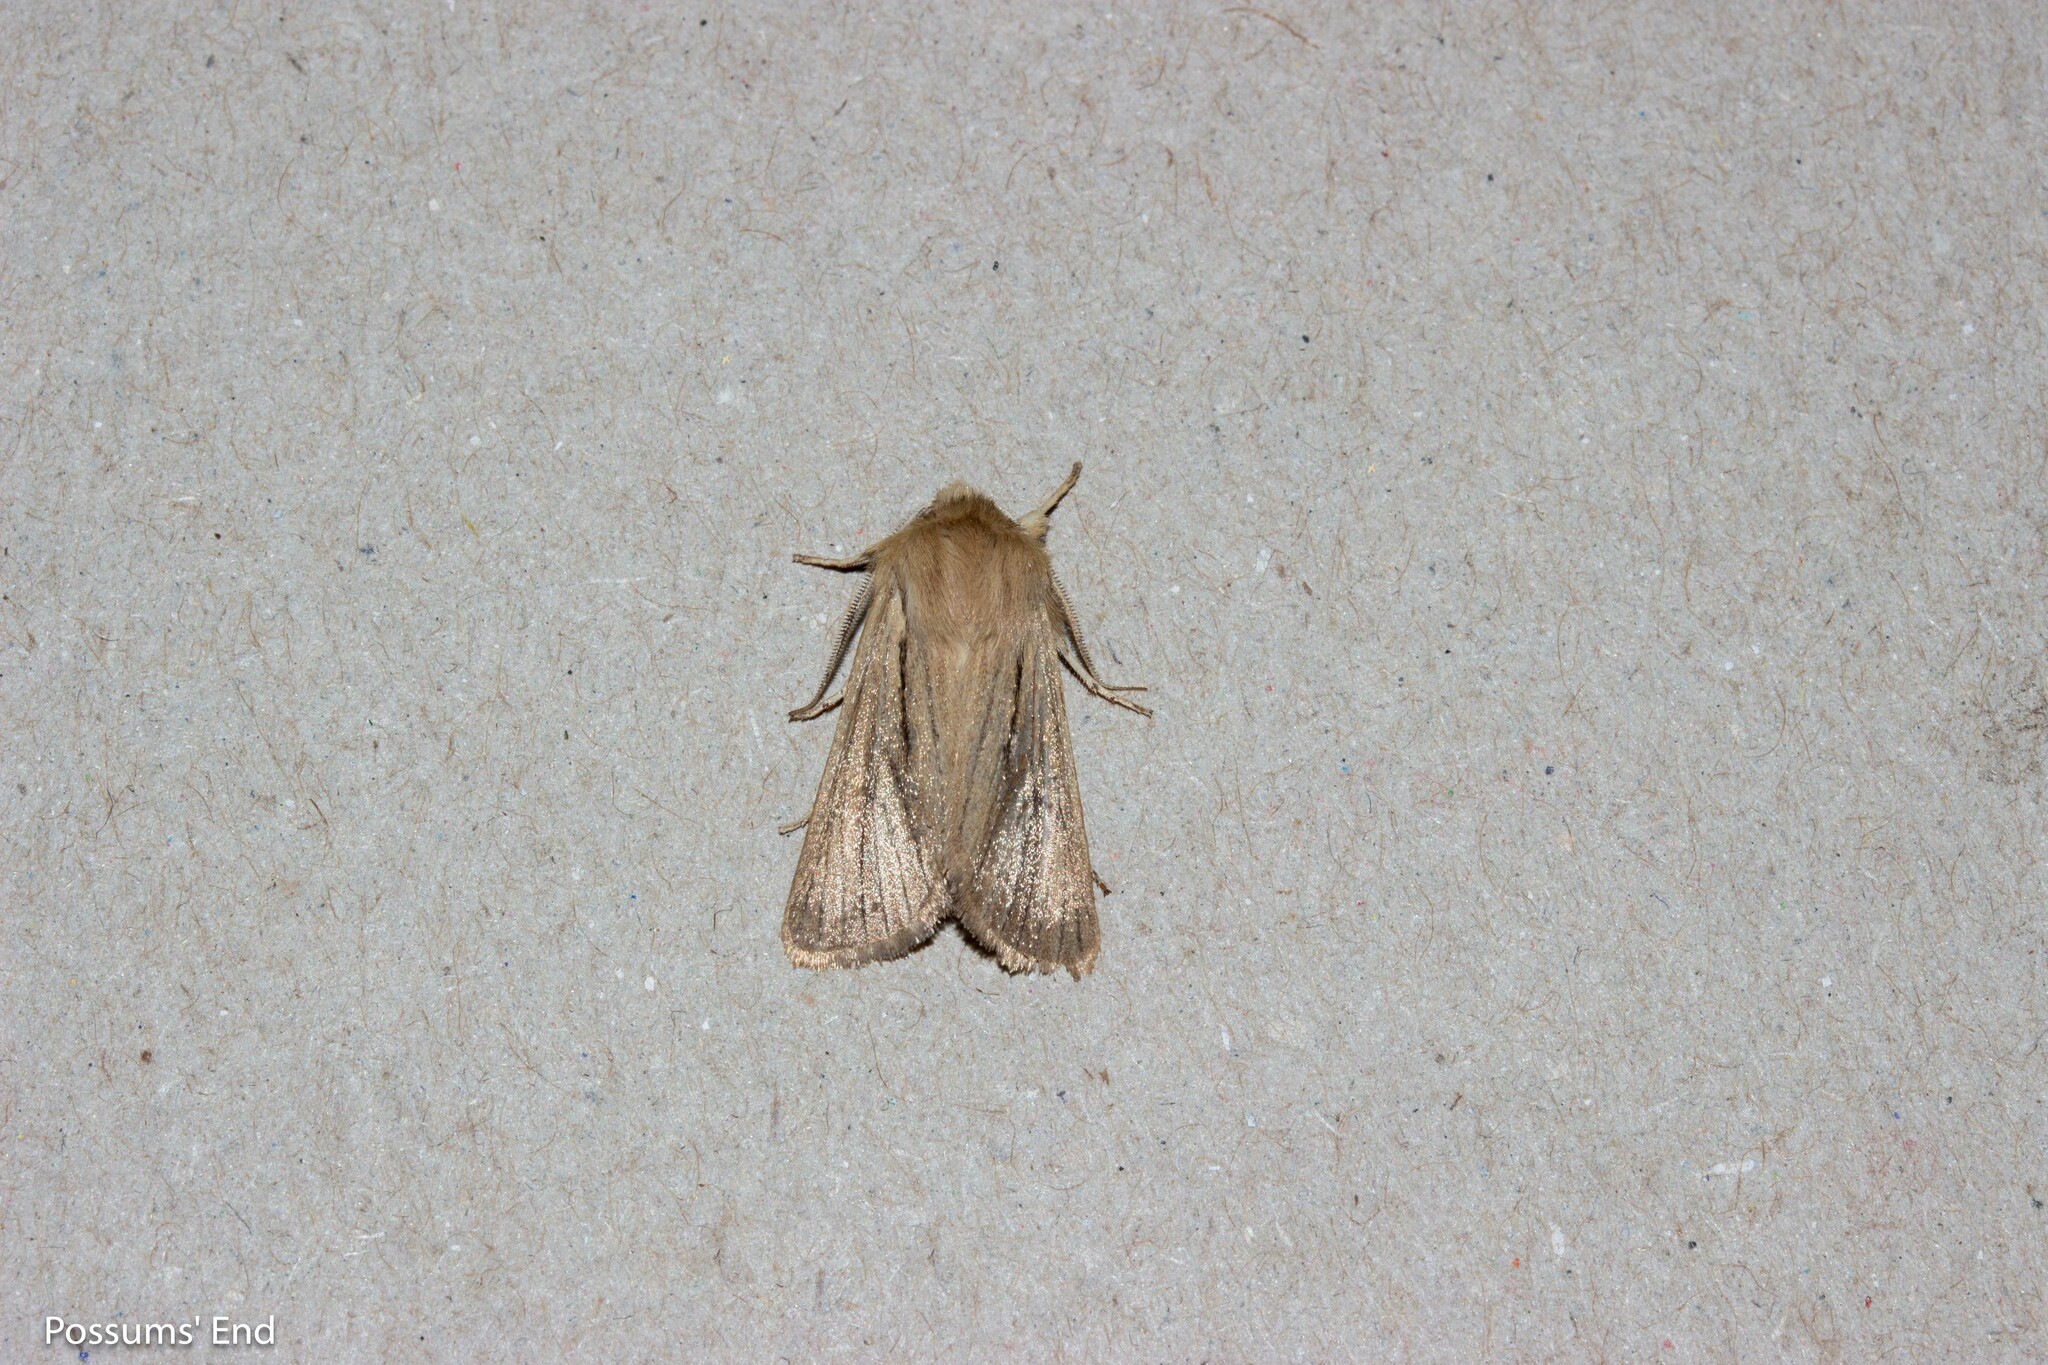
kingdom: Animalia
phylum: Arthropoda
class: Insecta
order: Lepidoptera
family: Noctuidae
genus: Ichneutica
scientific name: Ichneutica
